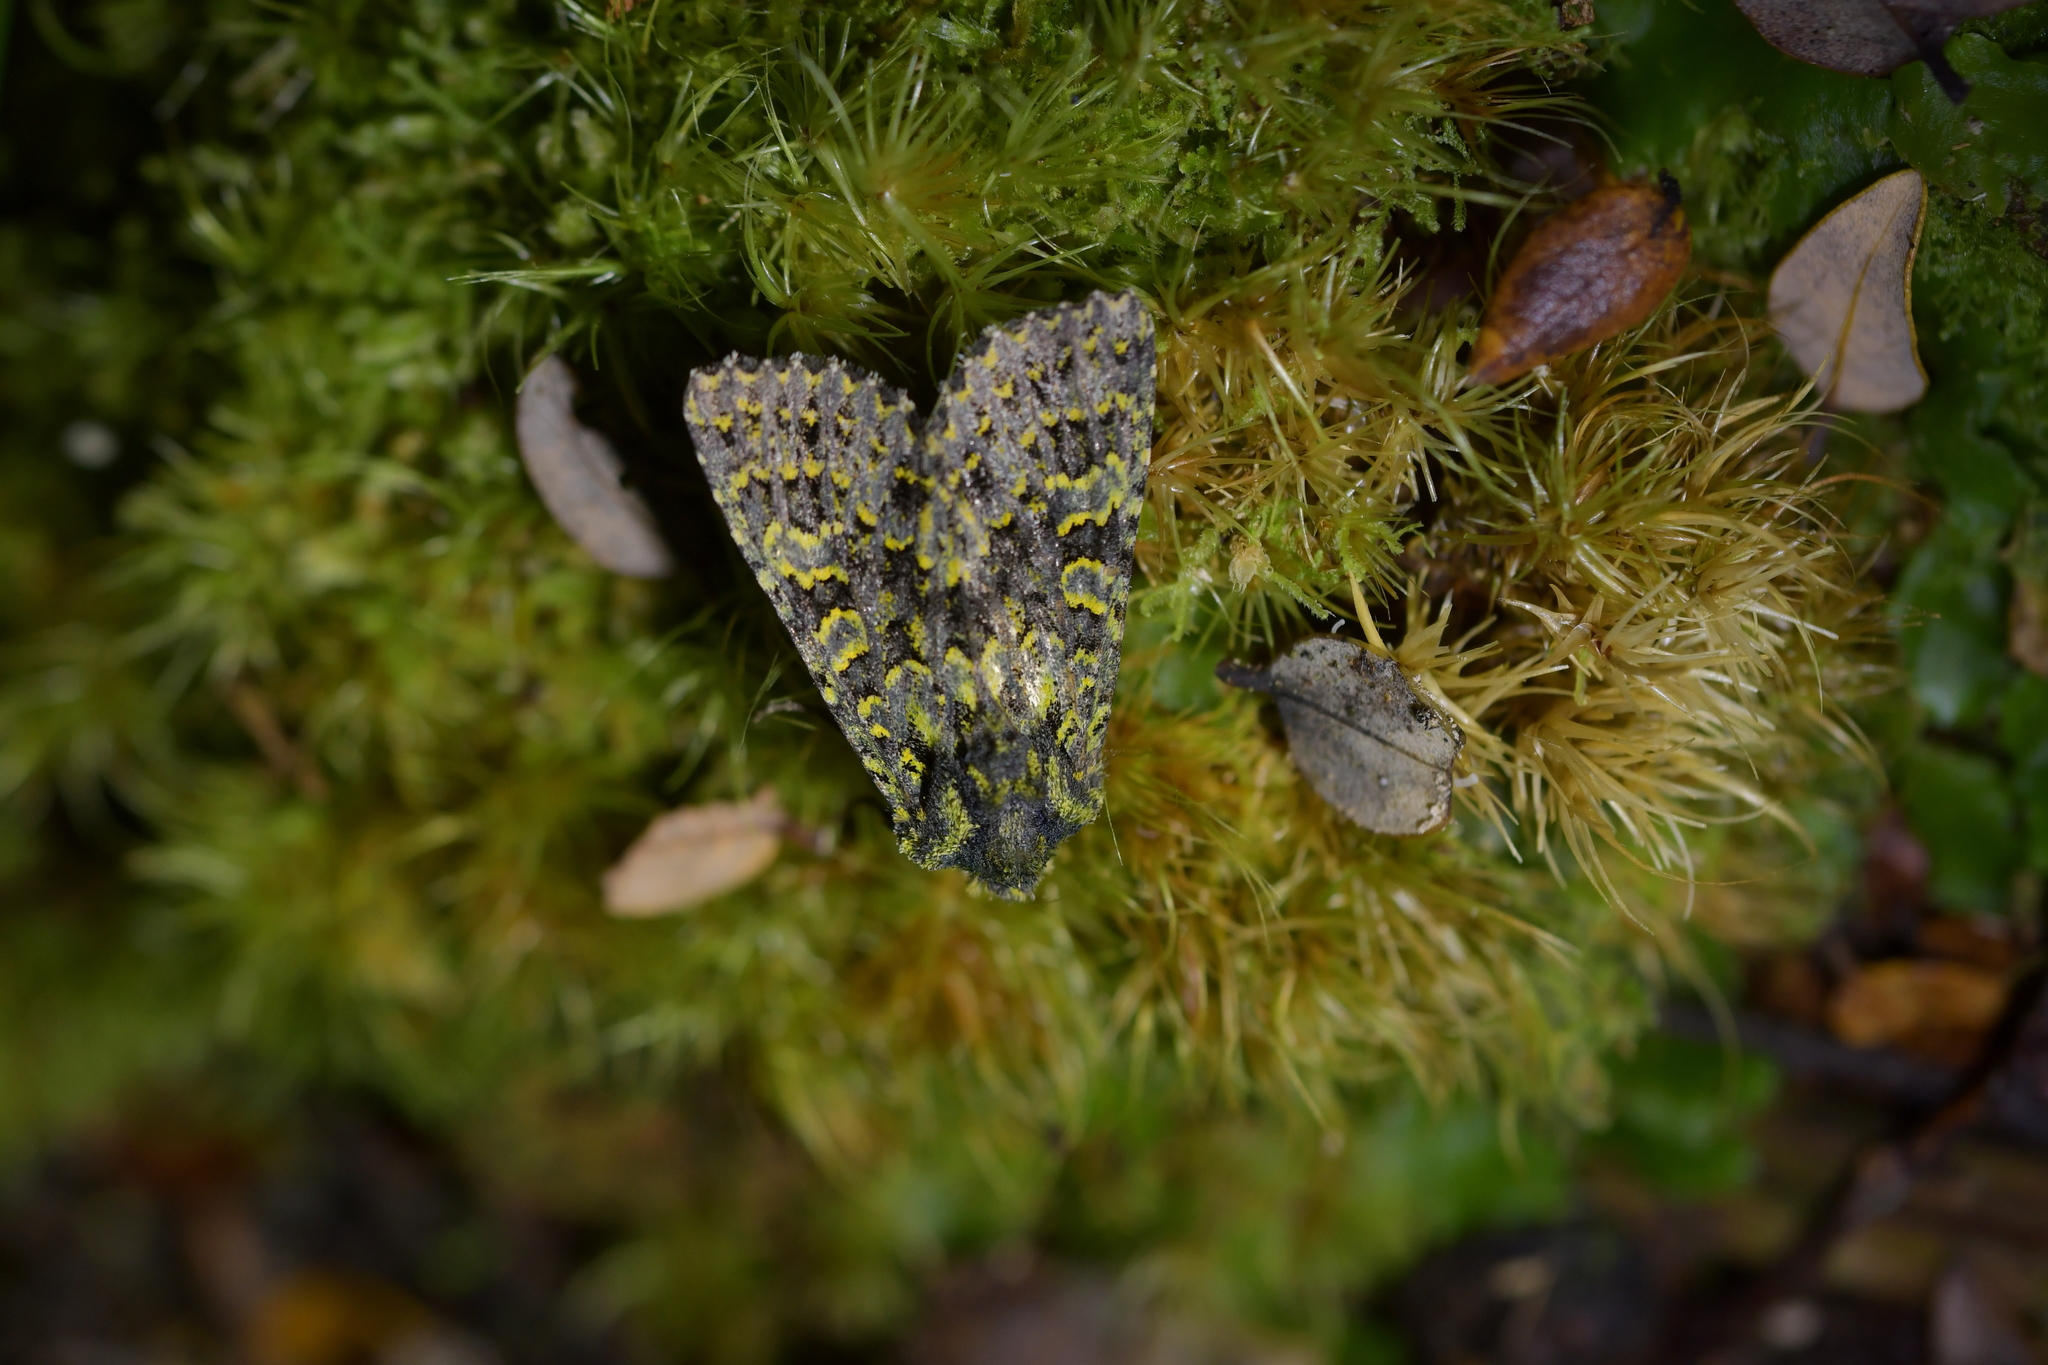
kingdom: Animalia
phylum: Arthropoda
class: Insecta
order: Lepidoptera
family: Noctuidae
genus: Meterana
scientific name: Meterana pictula
